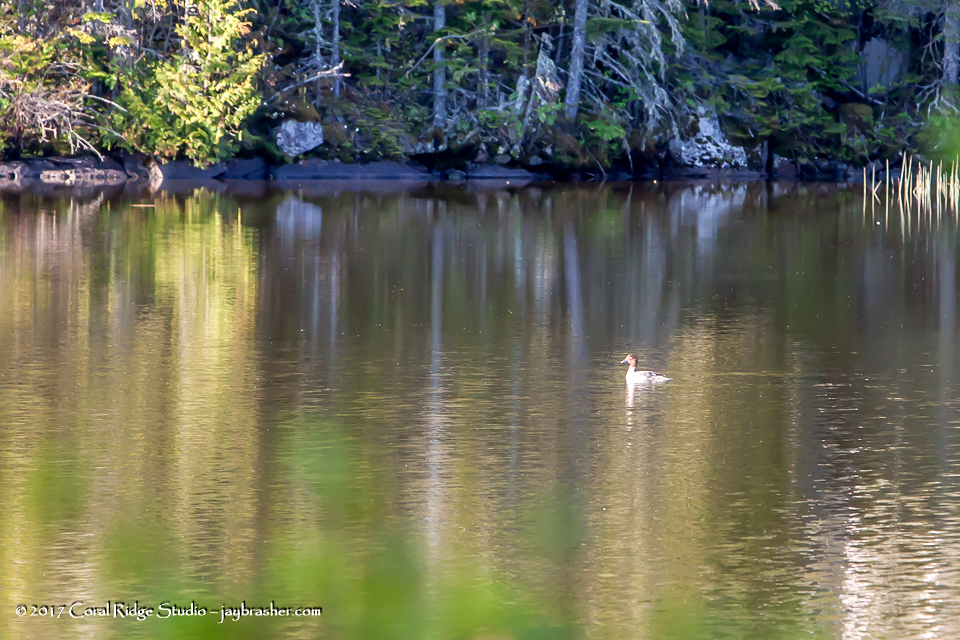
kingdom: Animalia
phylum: Chordata
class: Aves
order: Anseriformes
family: Anatidae
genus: Bucephala
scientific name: Bucephala clangula
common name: Common goldeneye
